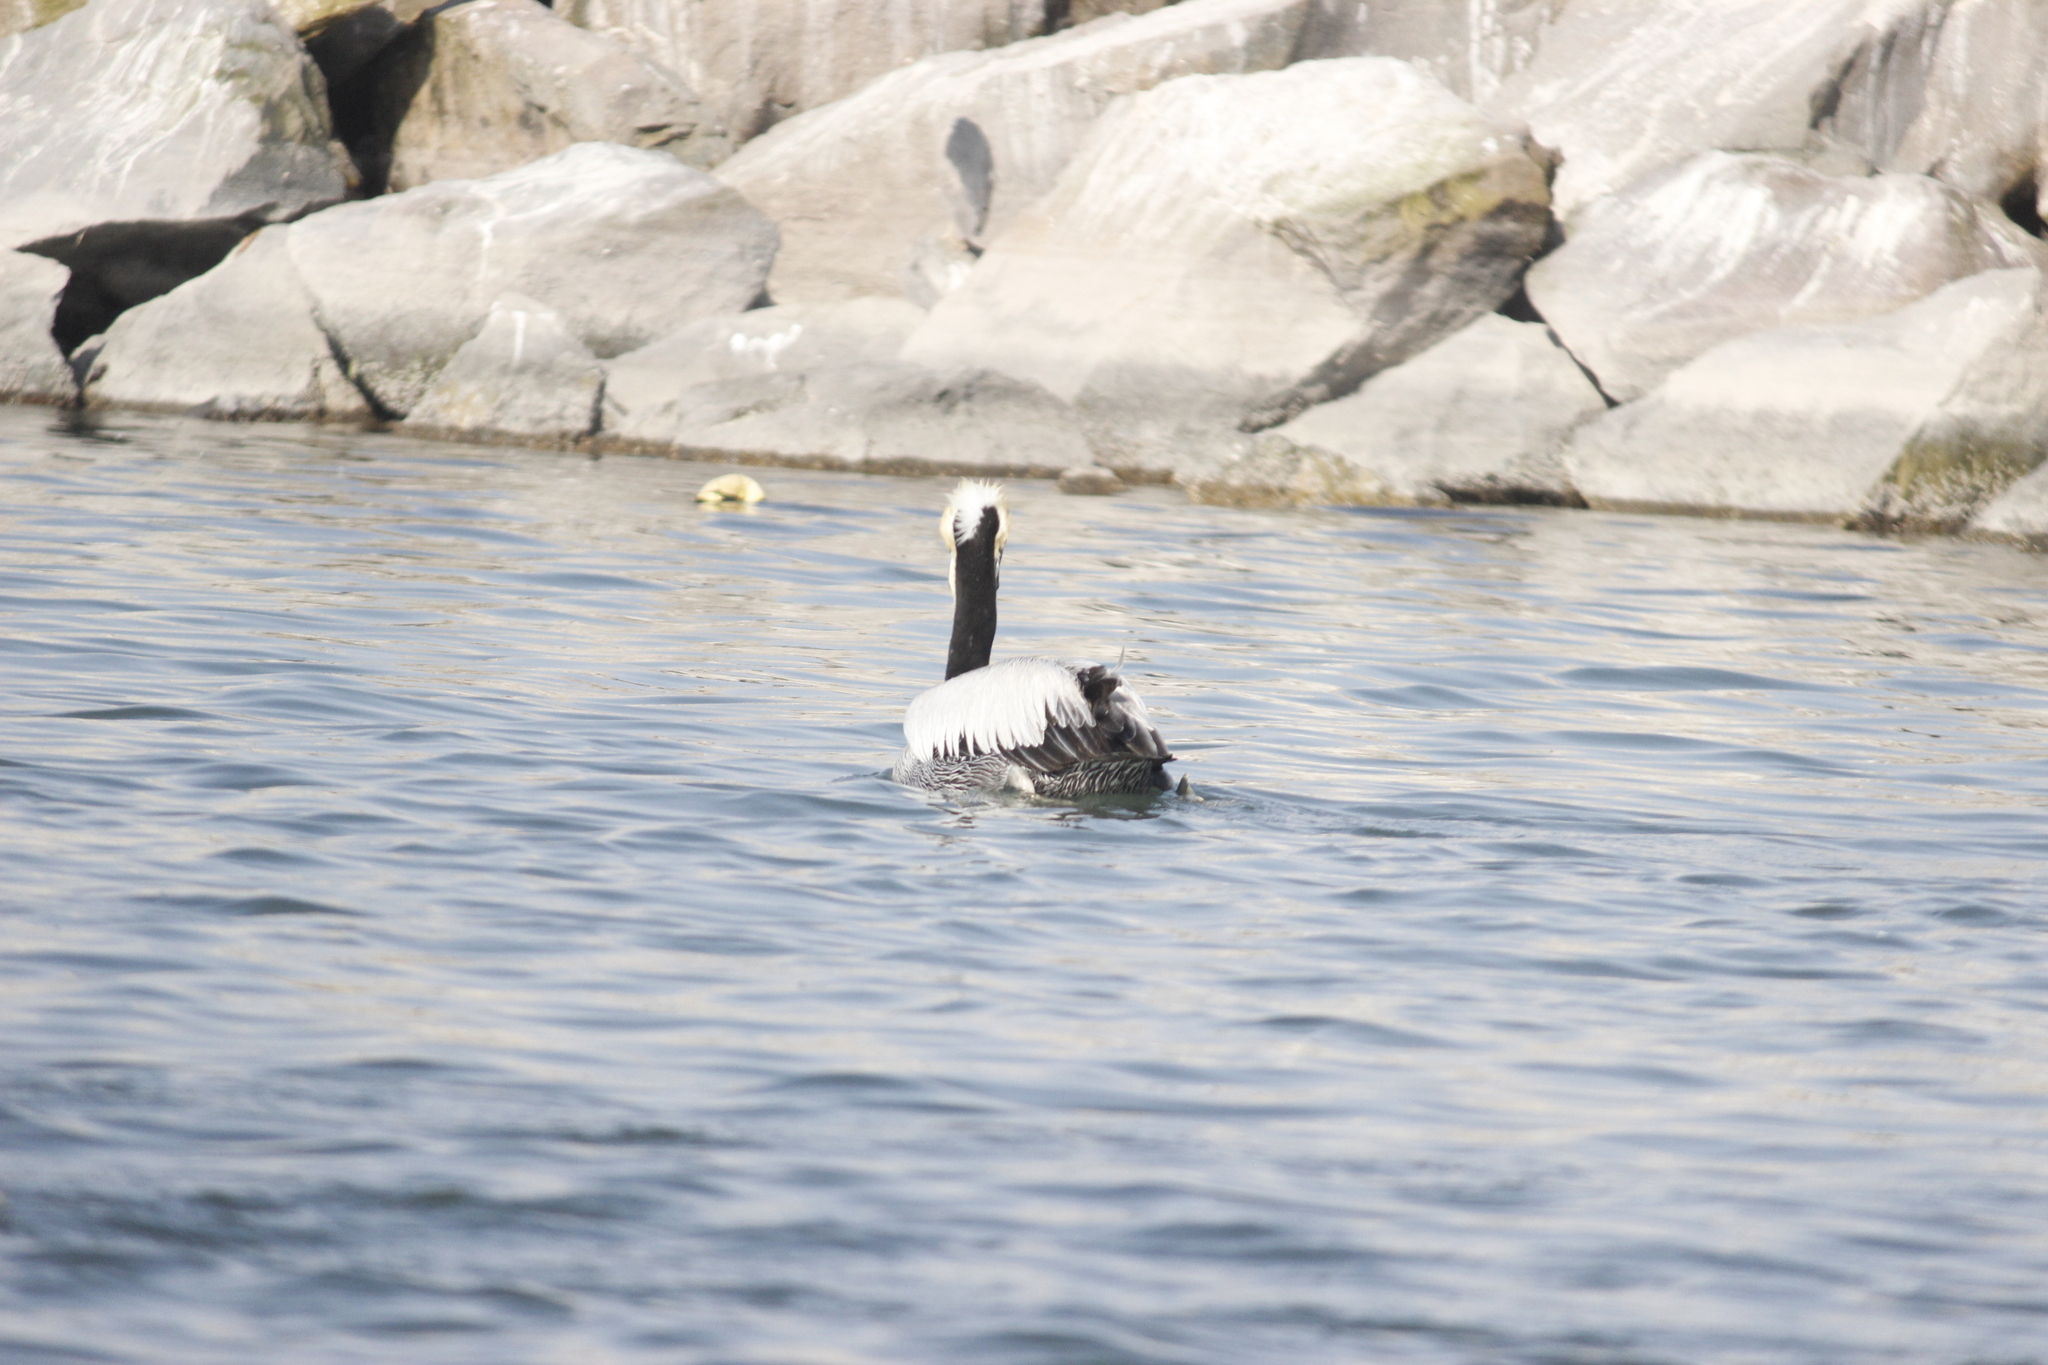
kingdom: Animalia
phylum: Chordata
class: Aves
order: Pelecaniformes
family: Pelecanidae
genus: Pelecanus
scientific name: Pelecanus thagus
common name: Peruvian pelican
